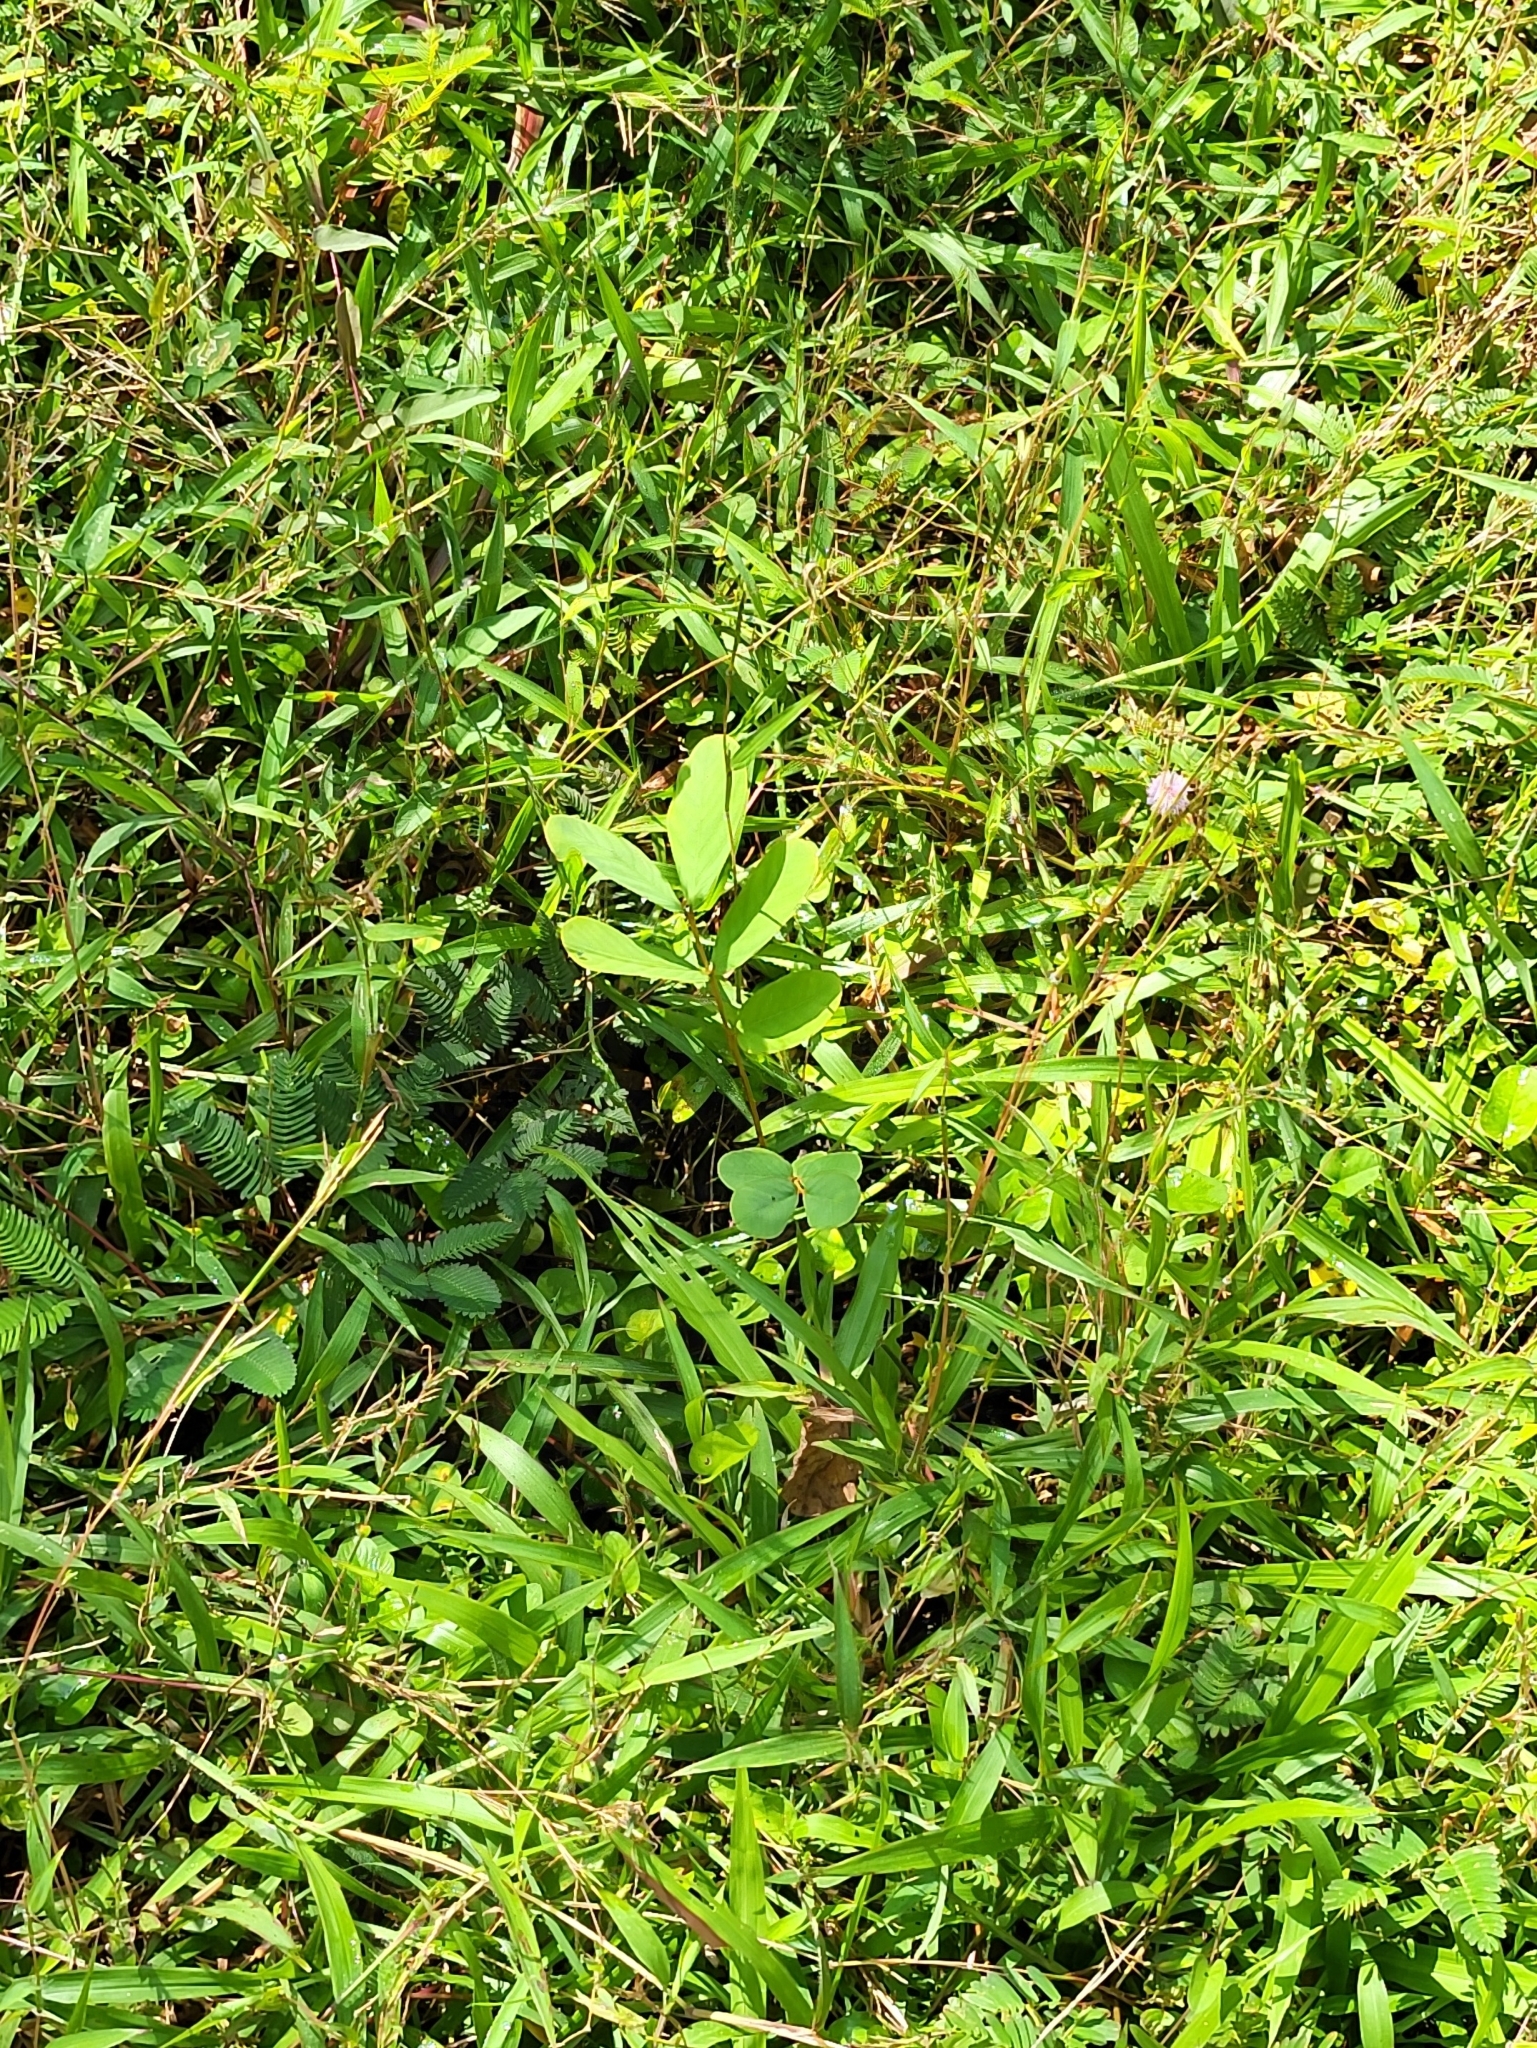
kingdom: Plantae
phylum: Tracheophyta
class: Magnoliopsida
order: Fabales
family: Fabaceae
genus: Senna
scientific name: Senna alata
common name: Emperor's candlesticks
